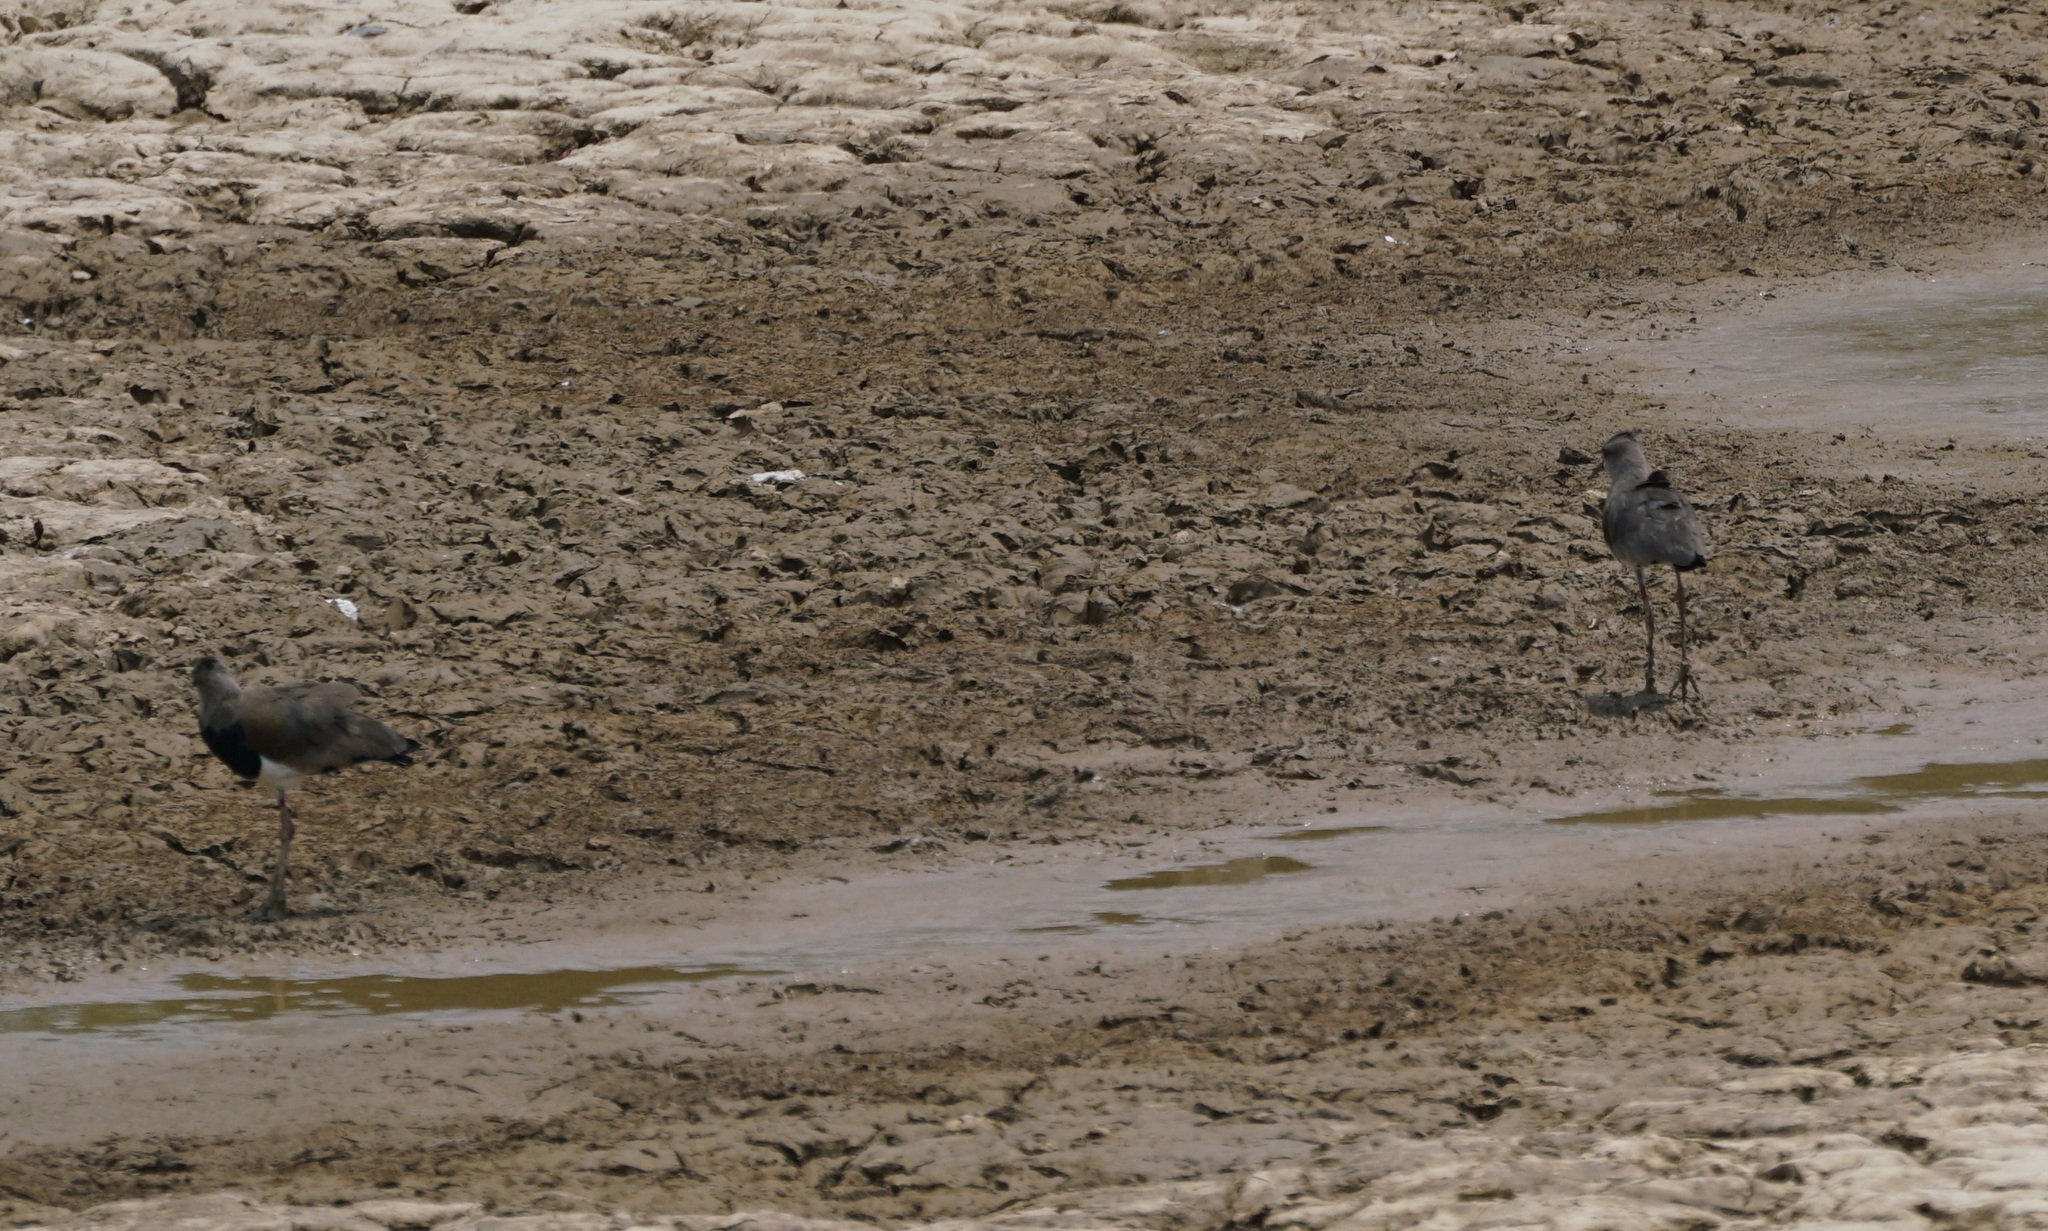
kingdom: Animalia
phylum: Chordata
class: Aves
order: Charadriiformes
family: Charadriidae
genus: Vanellus
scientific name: Vanellus chilensis
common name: Southern lapwing
